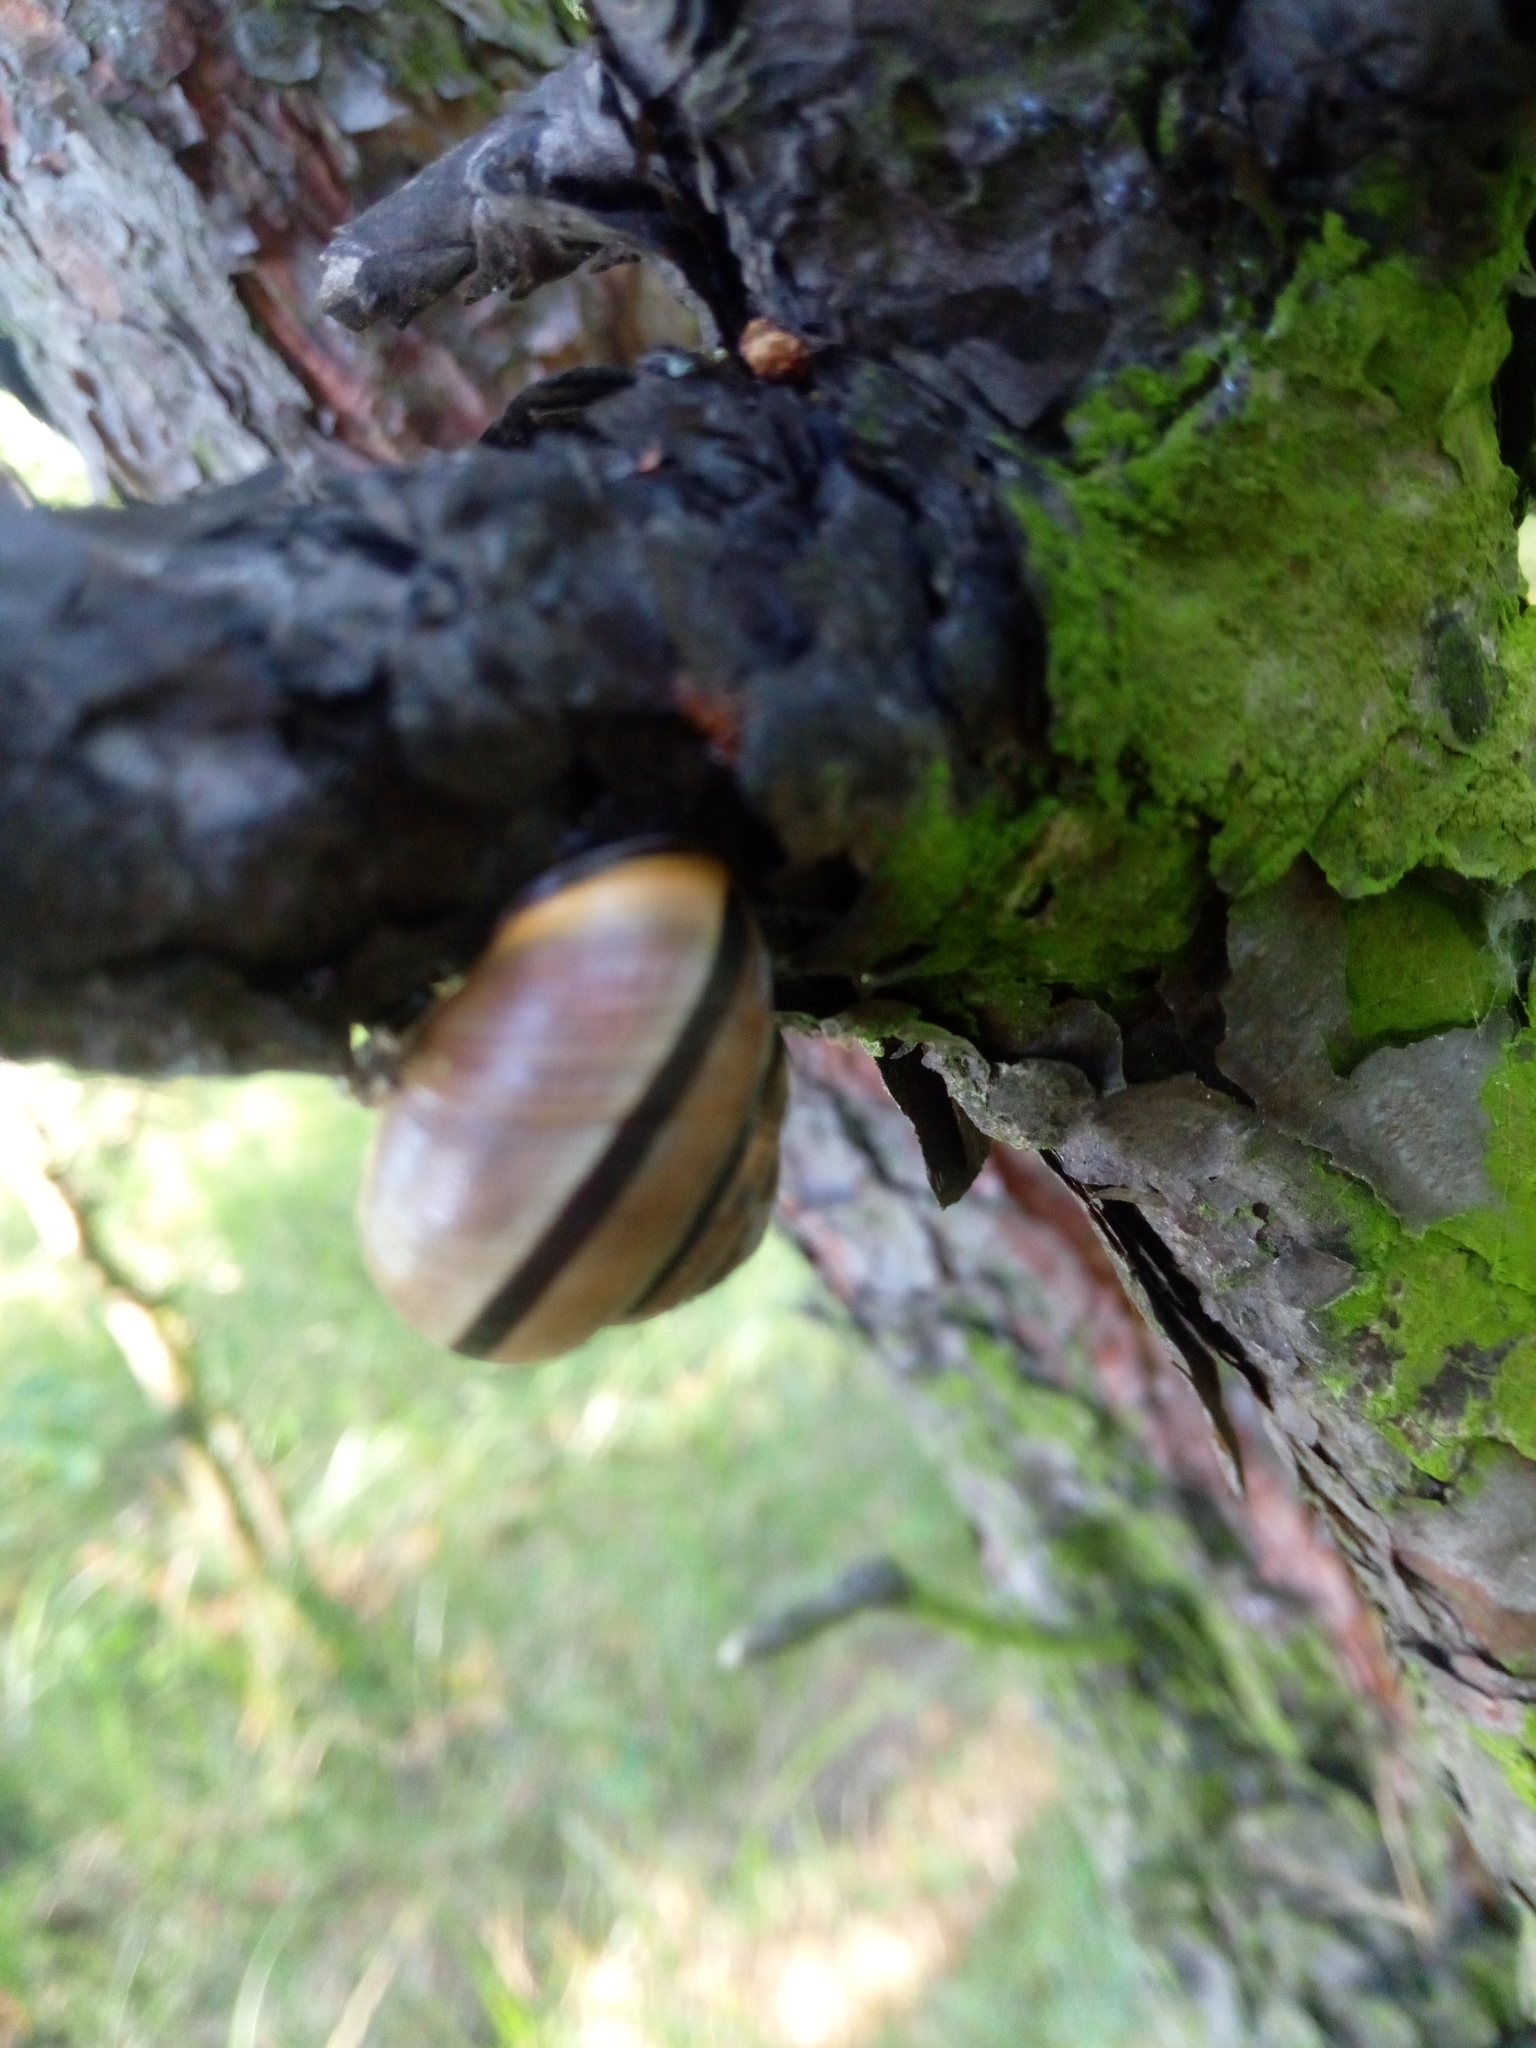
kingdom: Animalia
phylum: Mollusca
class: Gastropoda
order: Stylommatophora
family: Helicidae
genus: Cepaea
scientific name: Cepaea nemoralis
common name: Grovesnail
